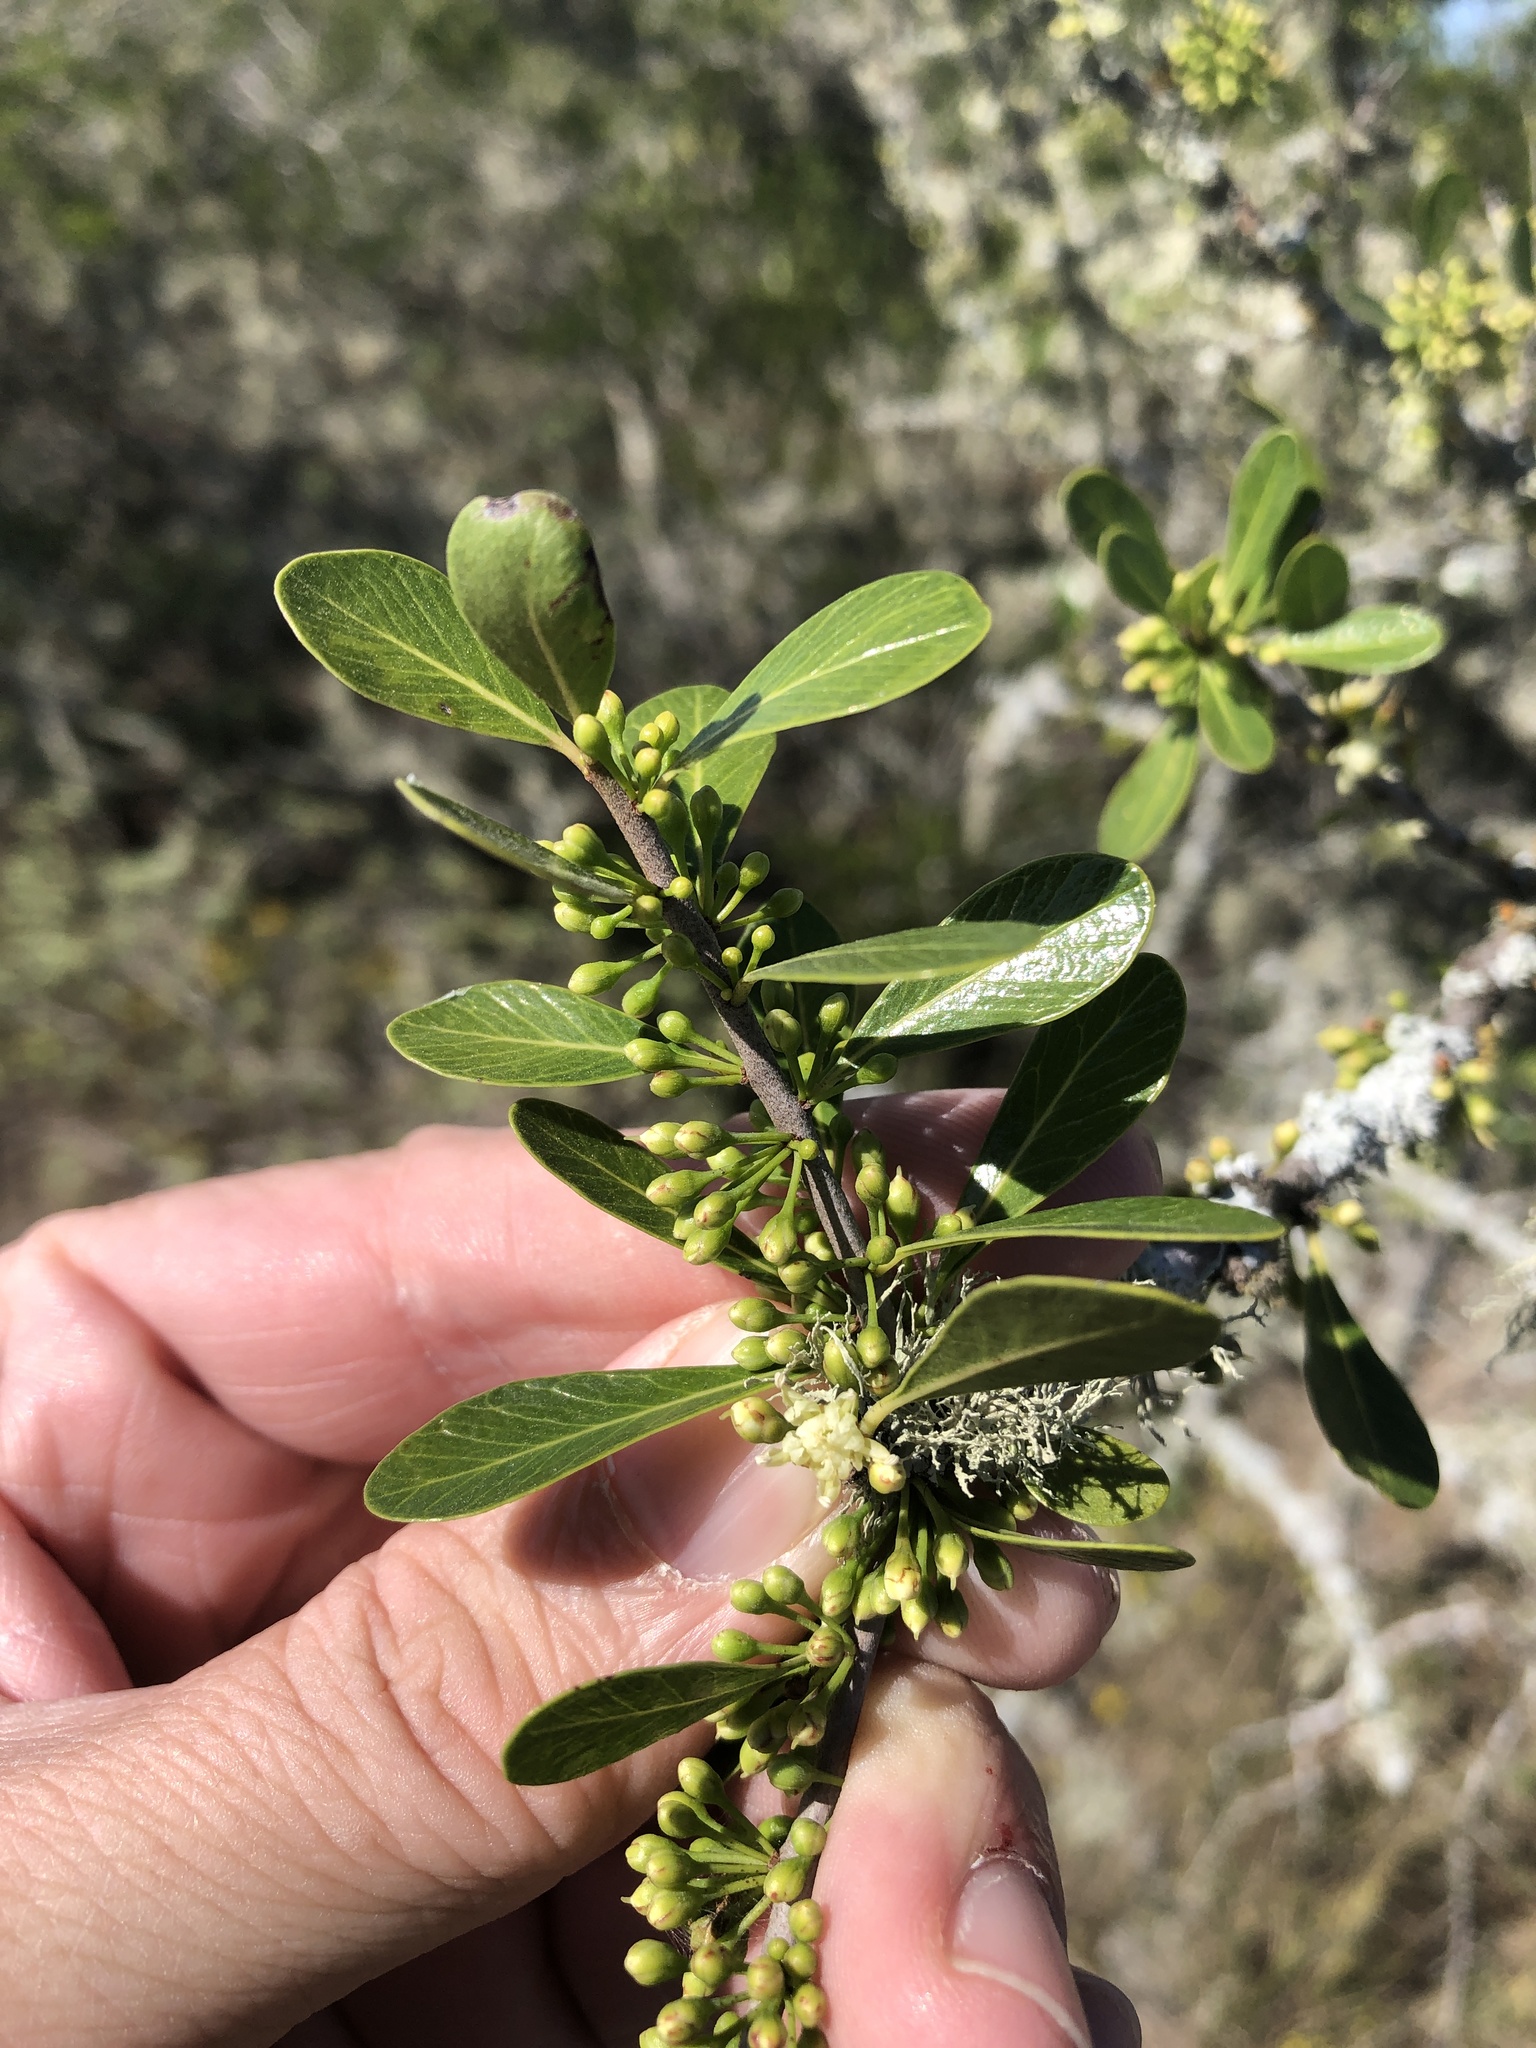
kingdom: Plantae
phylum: Tracheophyta
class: Magnoliopsida
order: Ericales
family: Sapotaceae
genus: Sideroxylon
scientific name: Sideroxylon celastrinum
